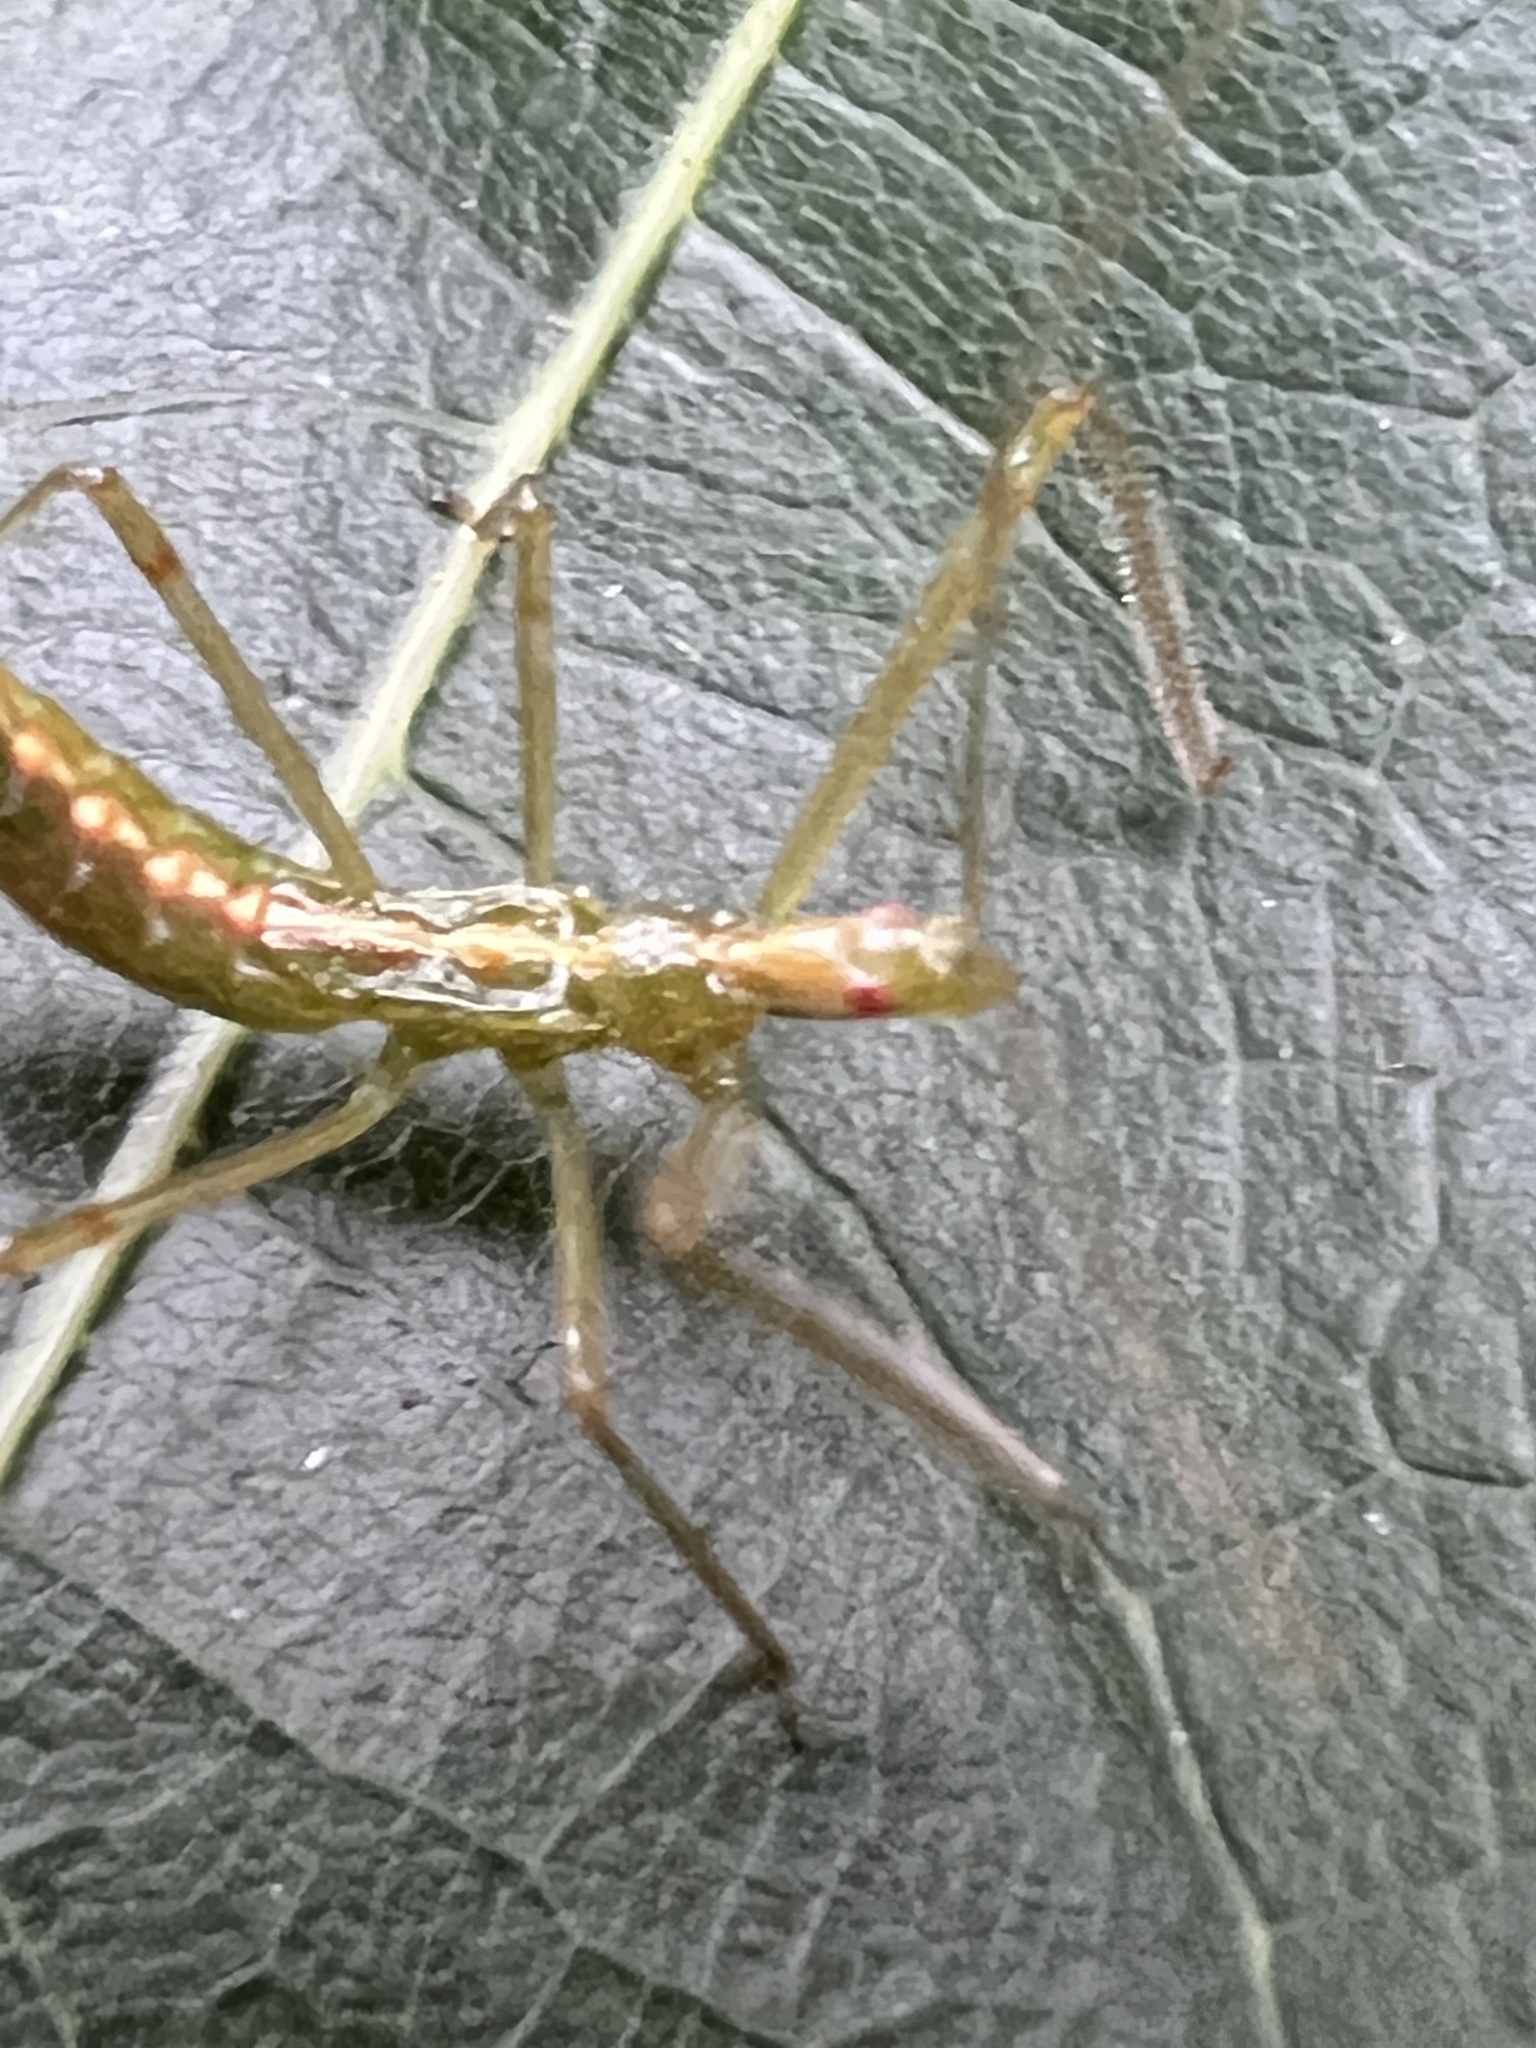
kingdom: Animalia
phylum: Arthropoda
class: Insecta
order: Hemiptera
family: Reduviidae
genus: Zelus
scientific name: Zelus luridus
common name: Pale green assassin bug
